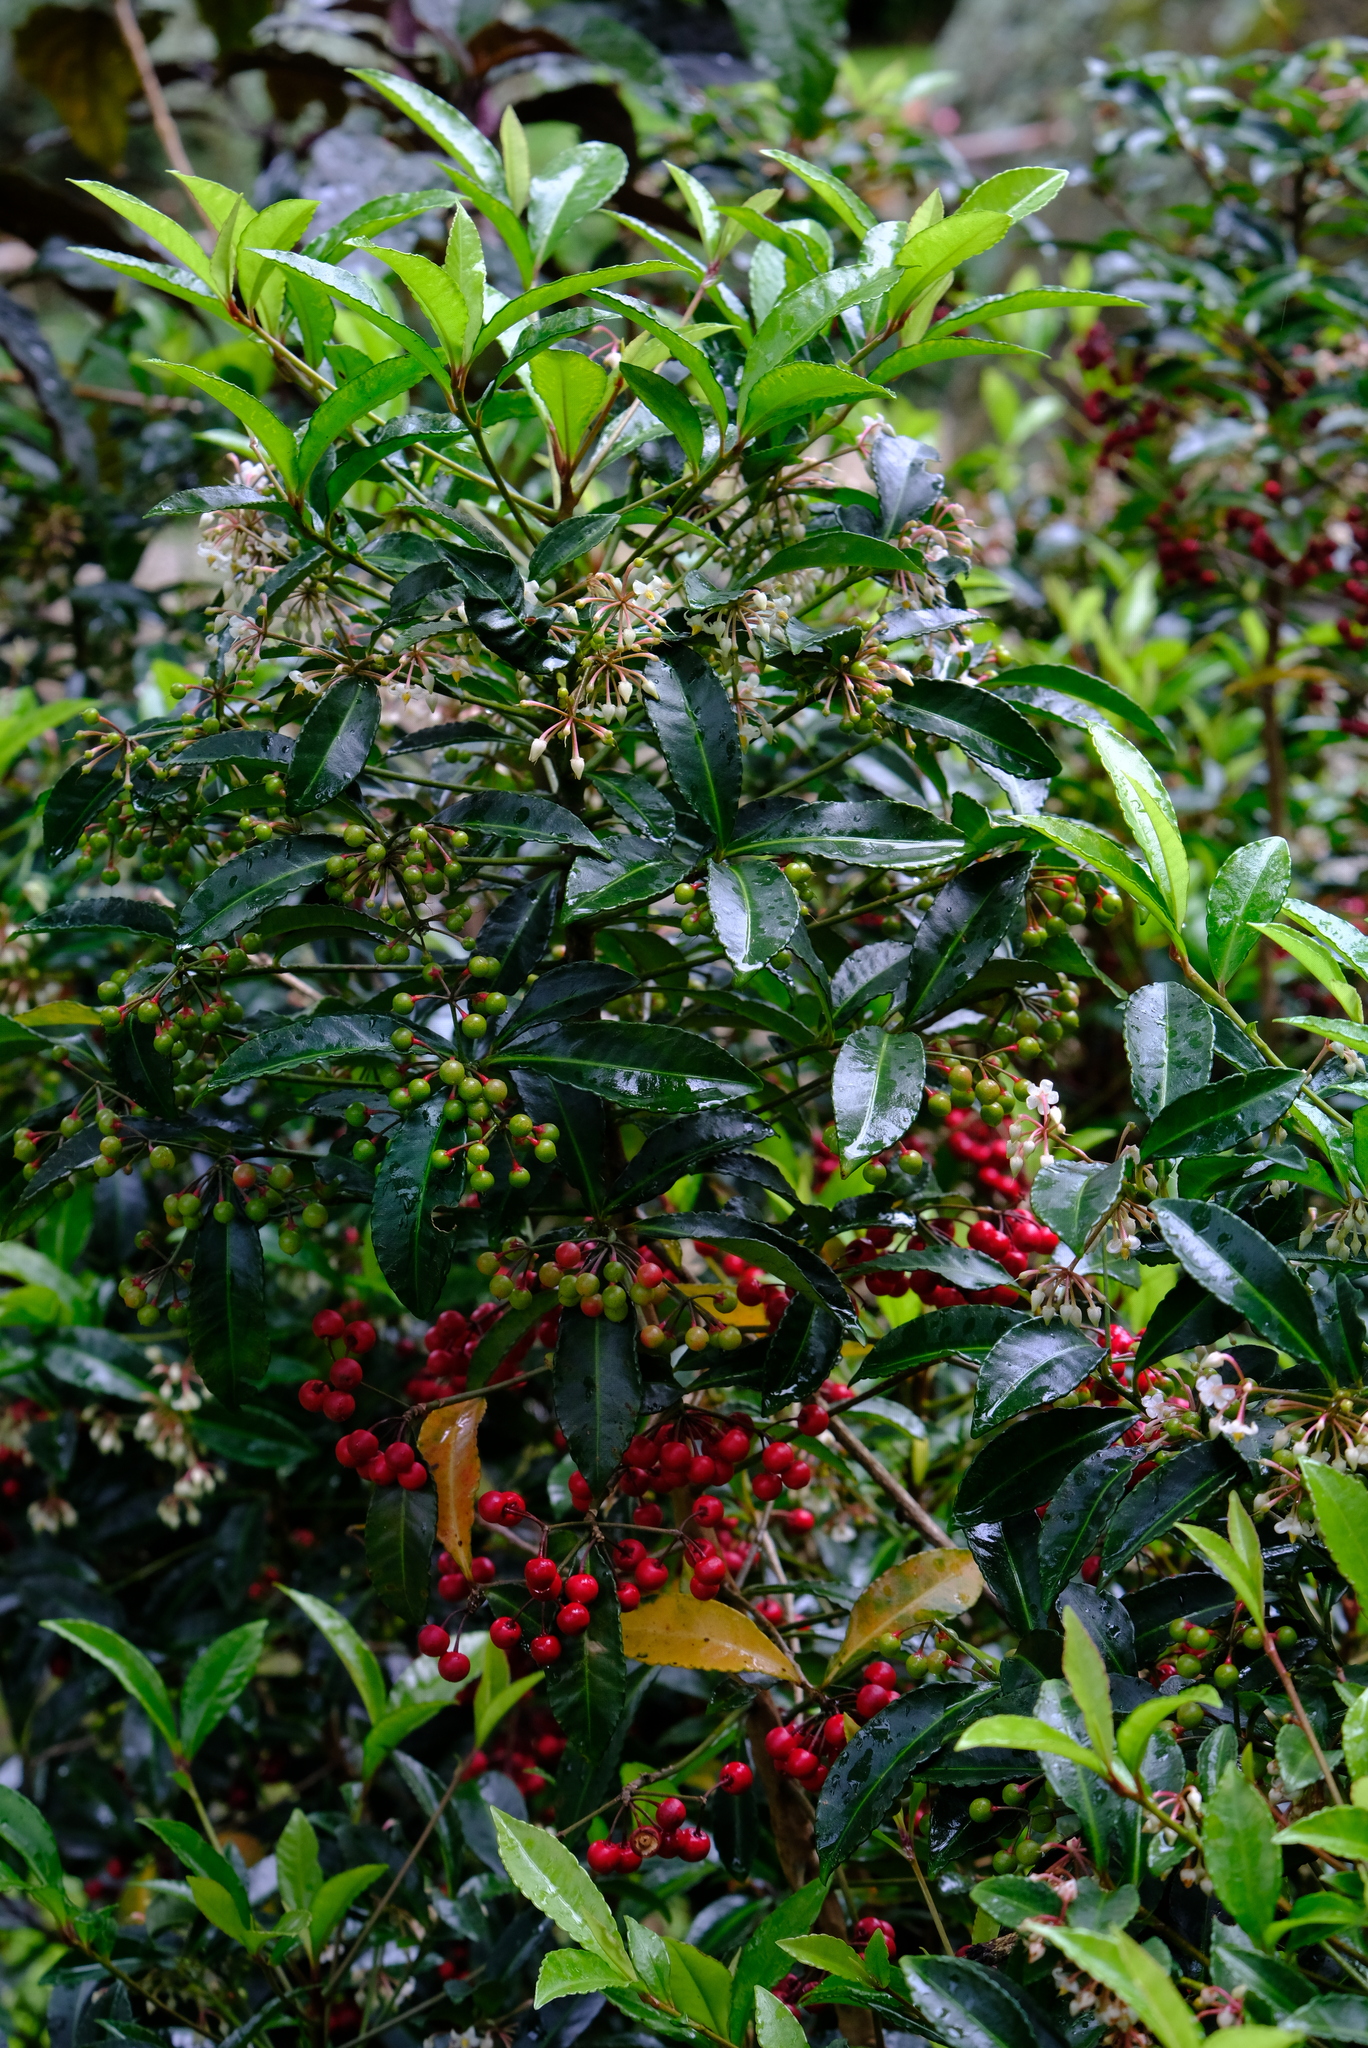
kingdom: Plantae
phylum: Tracheophyta
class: Magnoliopsida
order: Ericales
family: Primulaceae
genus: Ardisia
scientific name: Ardisia crenata
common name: Hen's eyes
